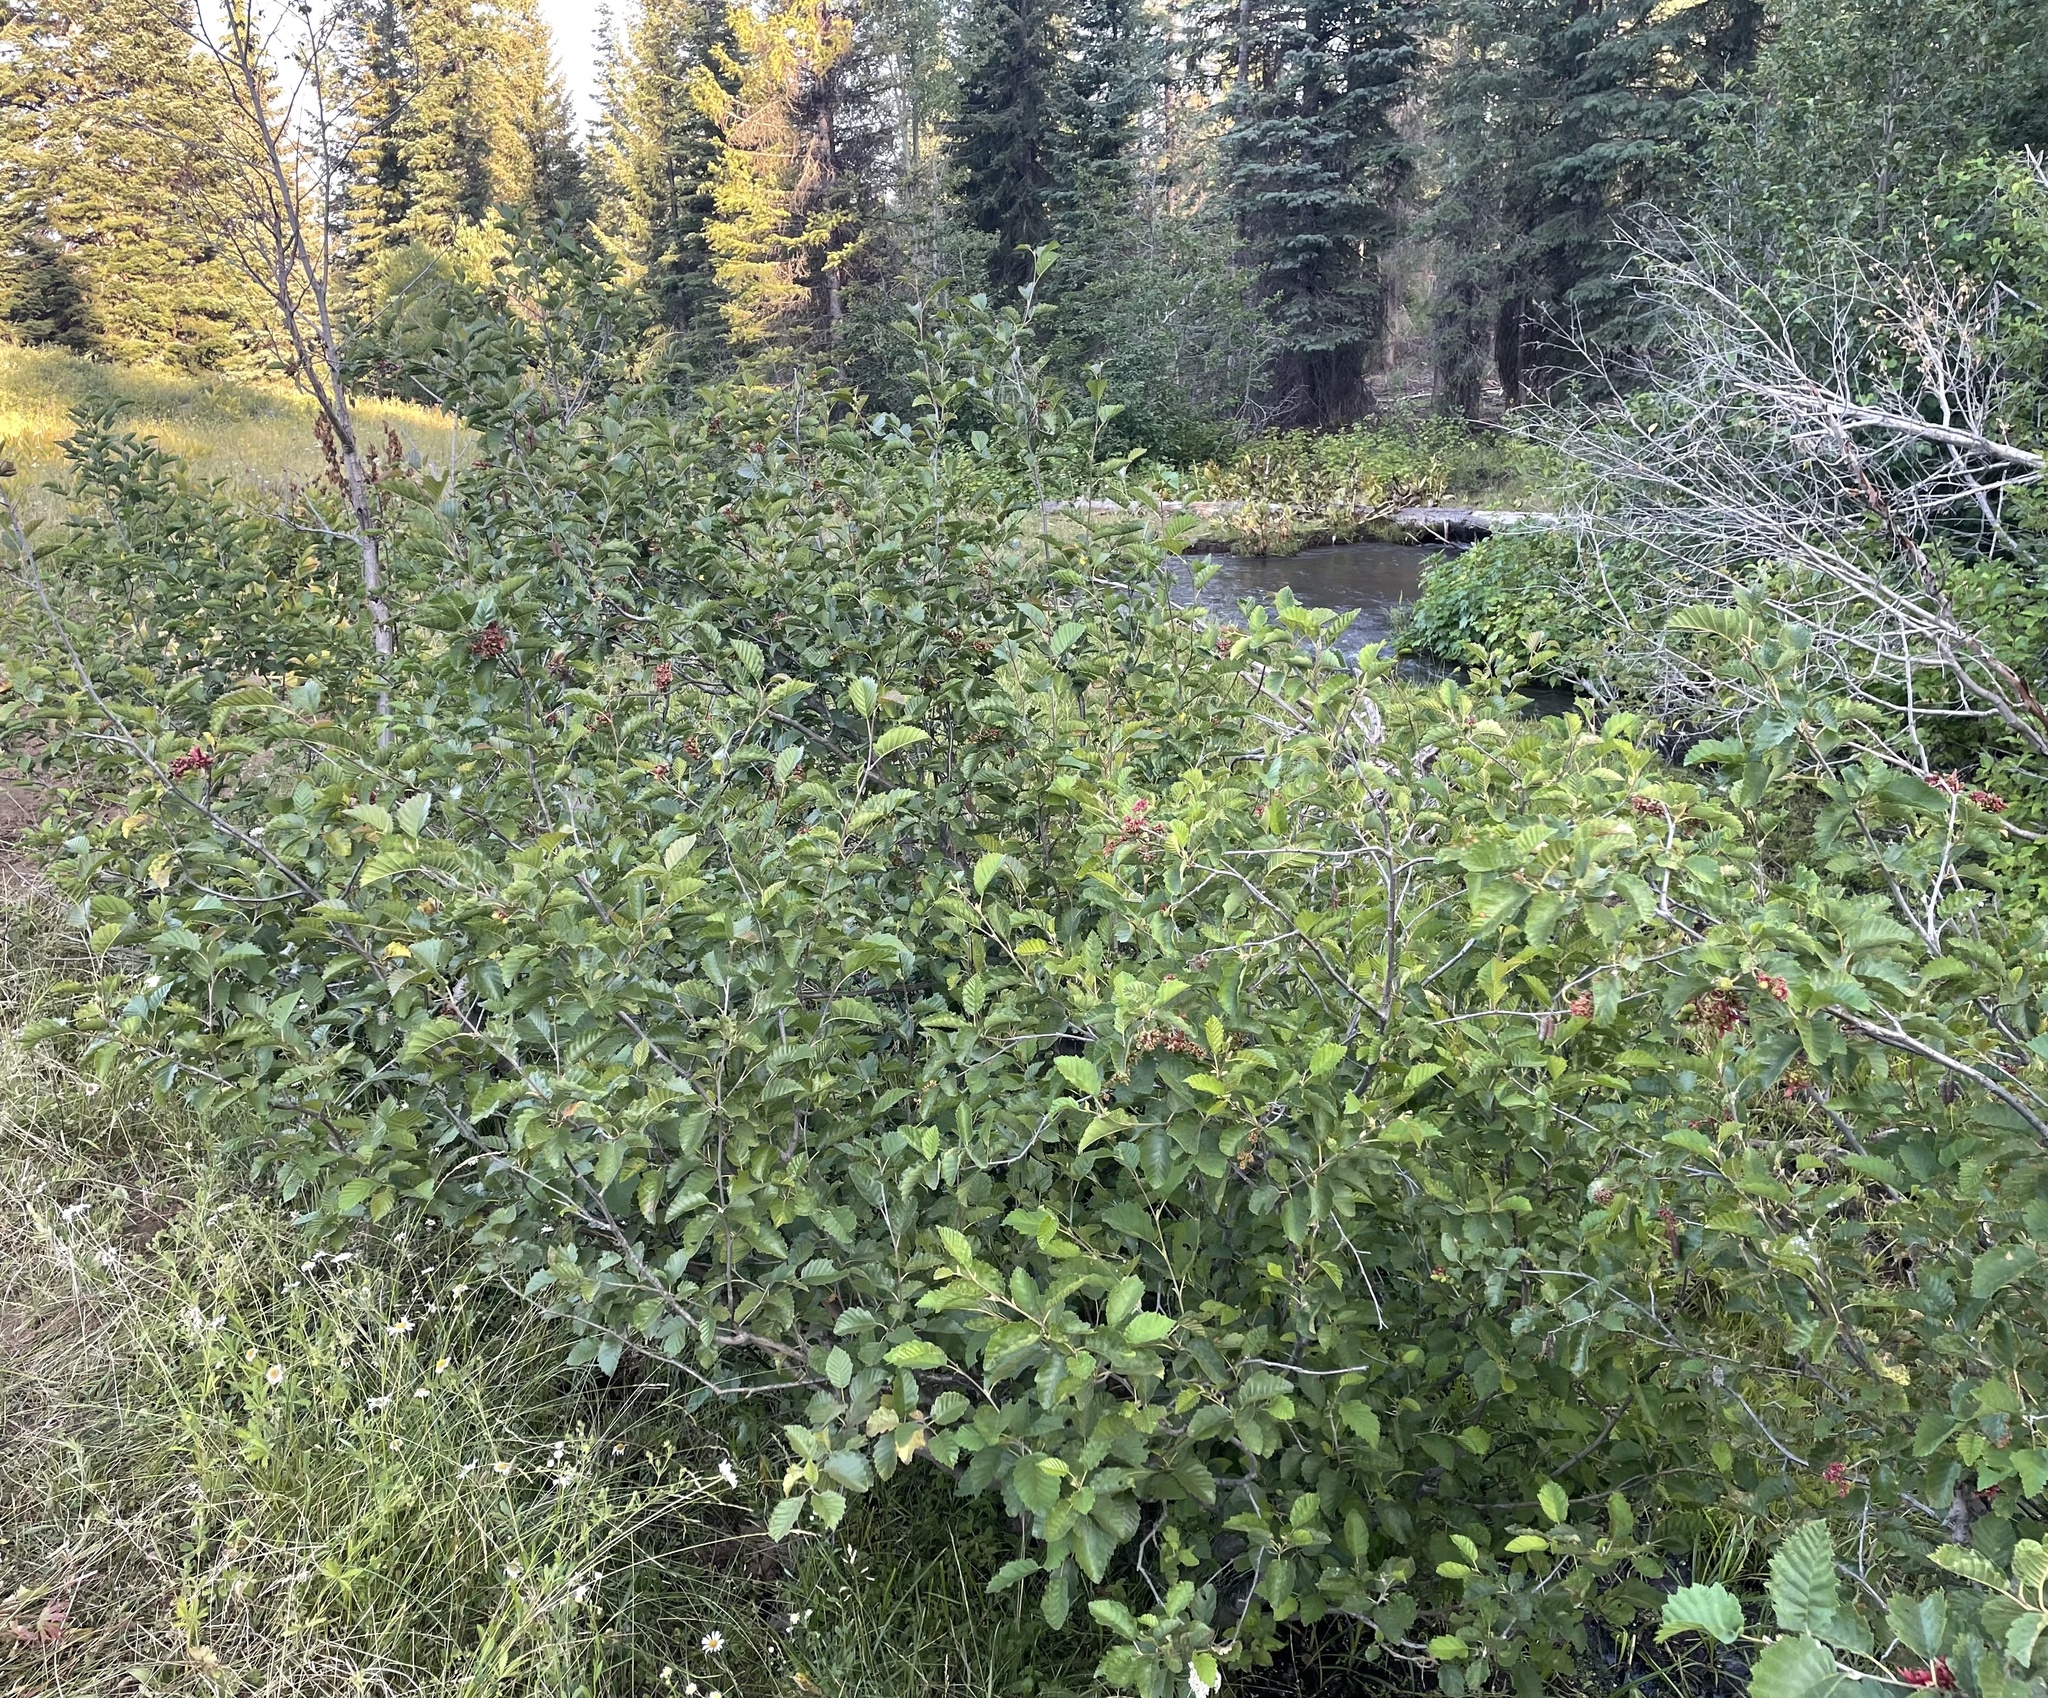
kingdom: Plantae
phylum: Tracheophyta
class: Magnoliopsida
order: Fagales
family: Betulaceae
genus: Alnus
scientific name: Alnus incana
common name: Grey alder
